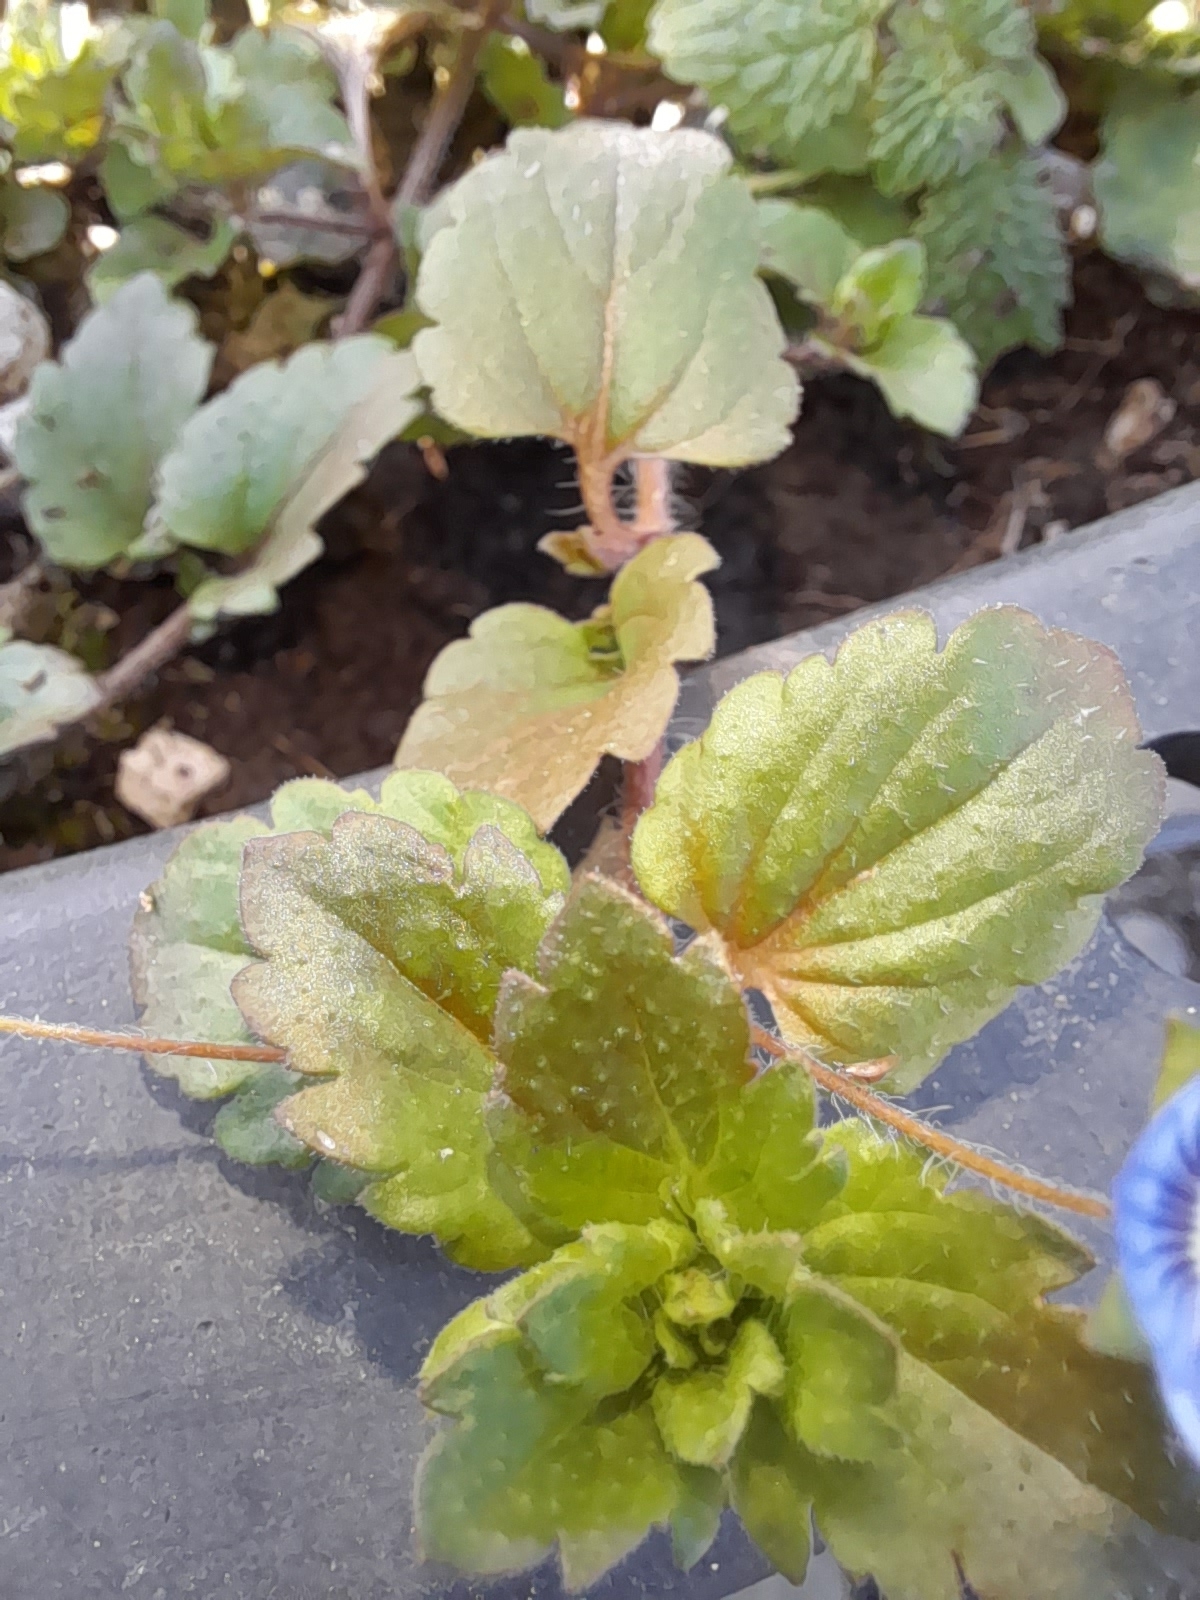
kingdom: Plantae
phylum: Tracheophyta
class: Magnoliopsida
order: Lamiales
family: Plantaginaceae
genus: Veronica
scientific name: Veronica persica
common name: Common field-speedwell
